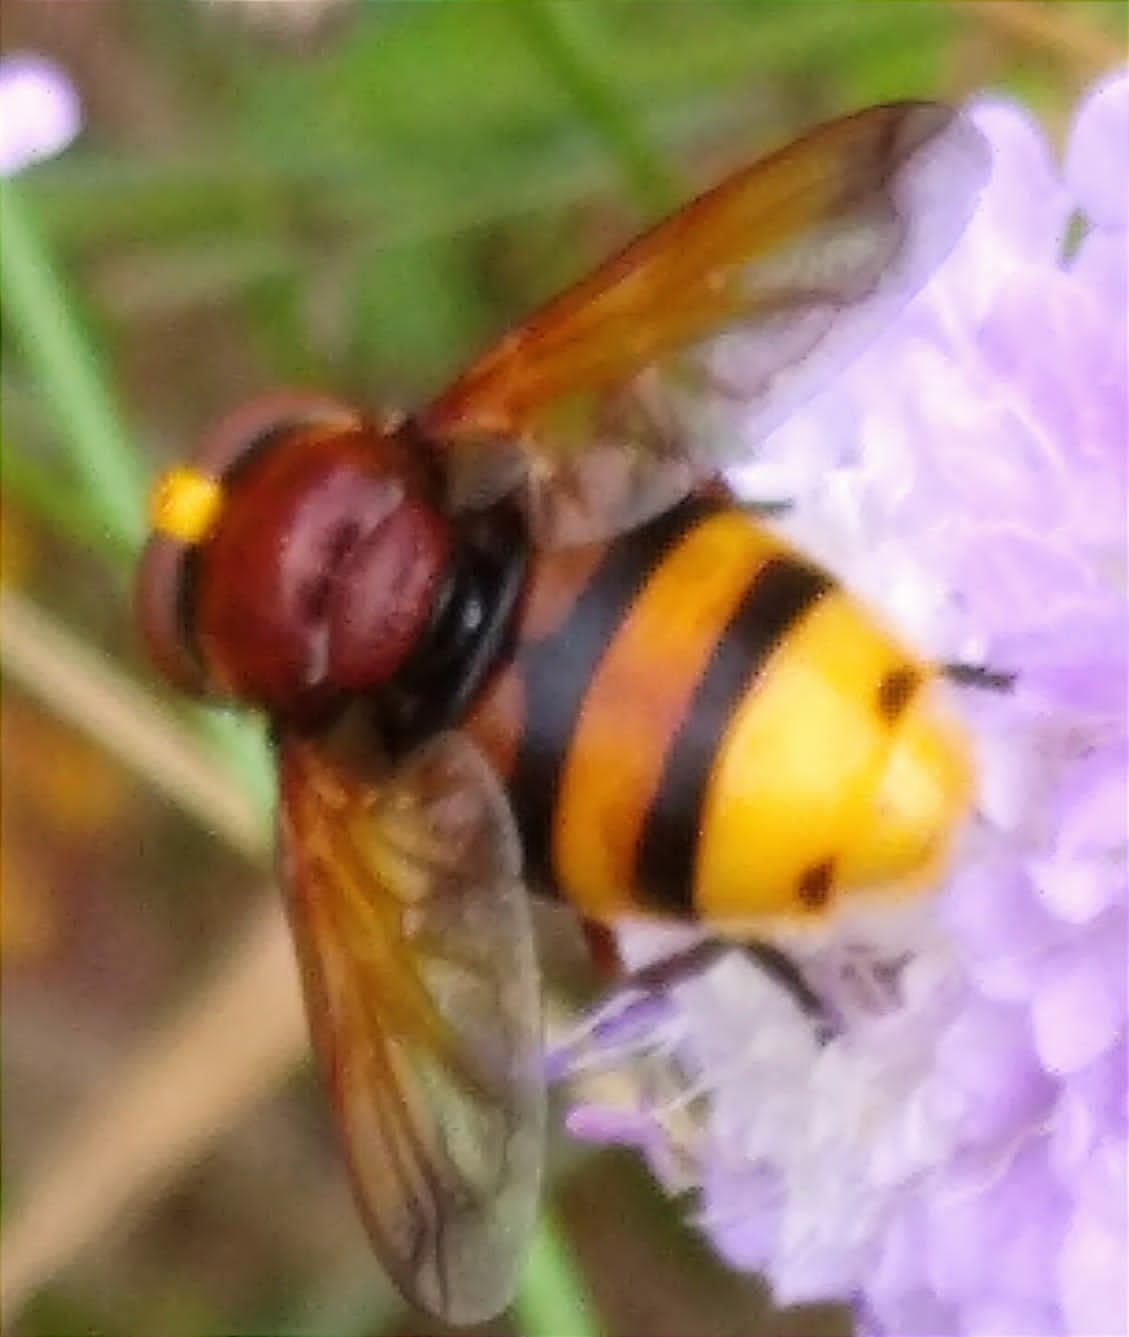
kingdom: Animalia
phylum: Arthropoda
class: Insecta
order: Diptera
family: Syrphidae
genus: Volucella
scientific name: Volucella zonaria
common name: Hornet hoverfly
